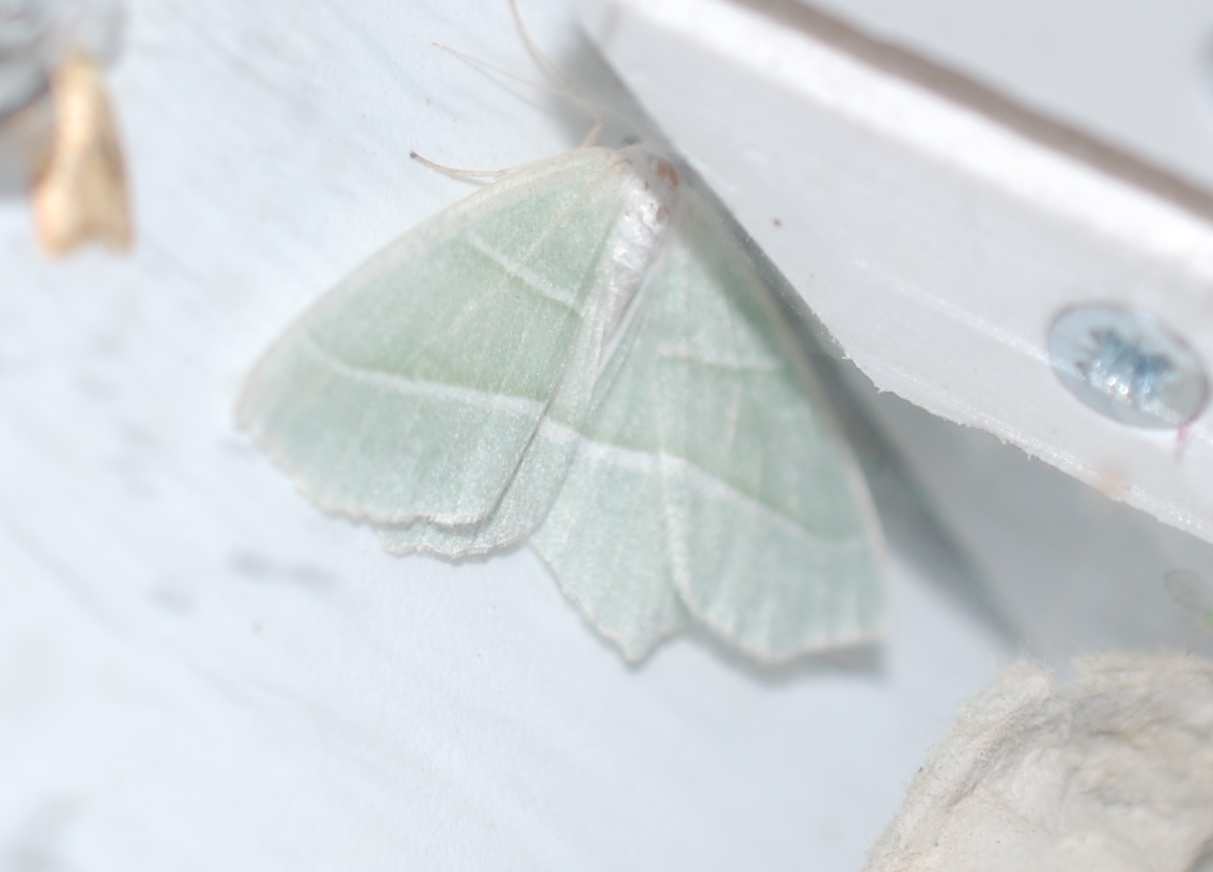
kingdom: Animalia
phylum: Arthropoda
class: Insecta
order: Lepidoptera
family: Geometridae
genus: Campaea
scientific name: Campaea margaritaria
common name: Light emerald
